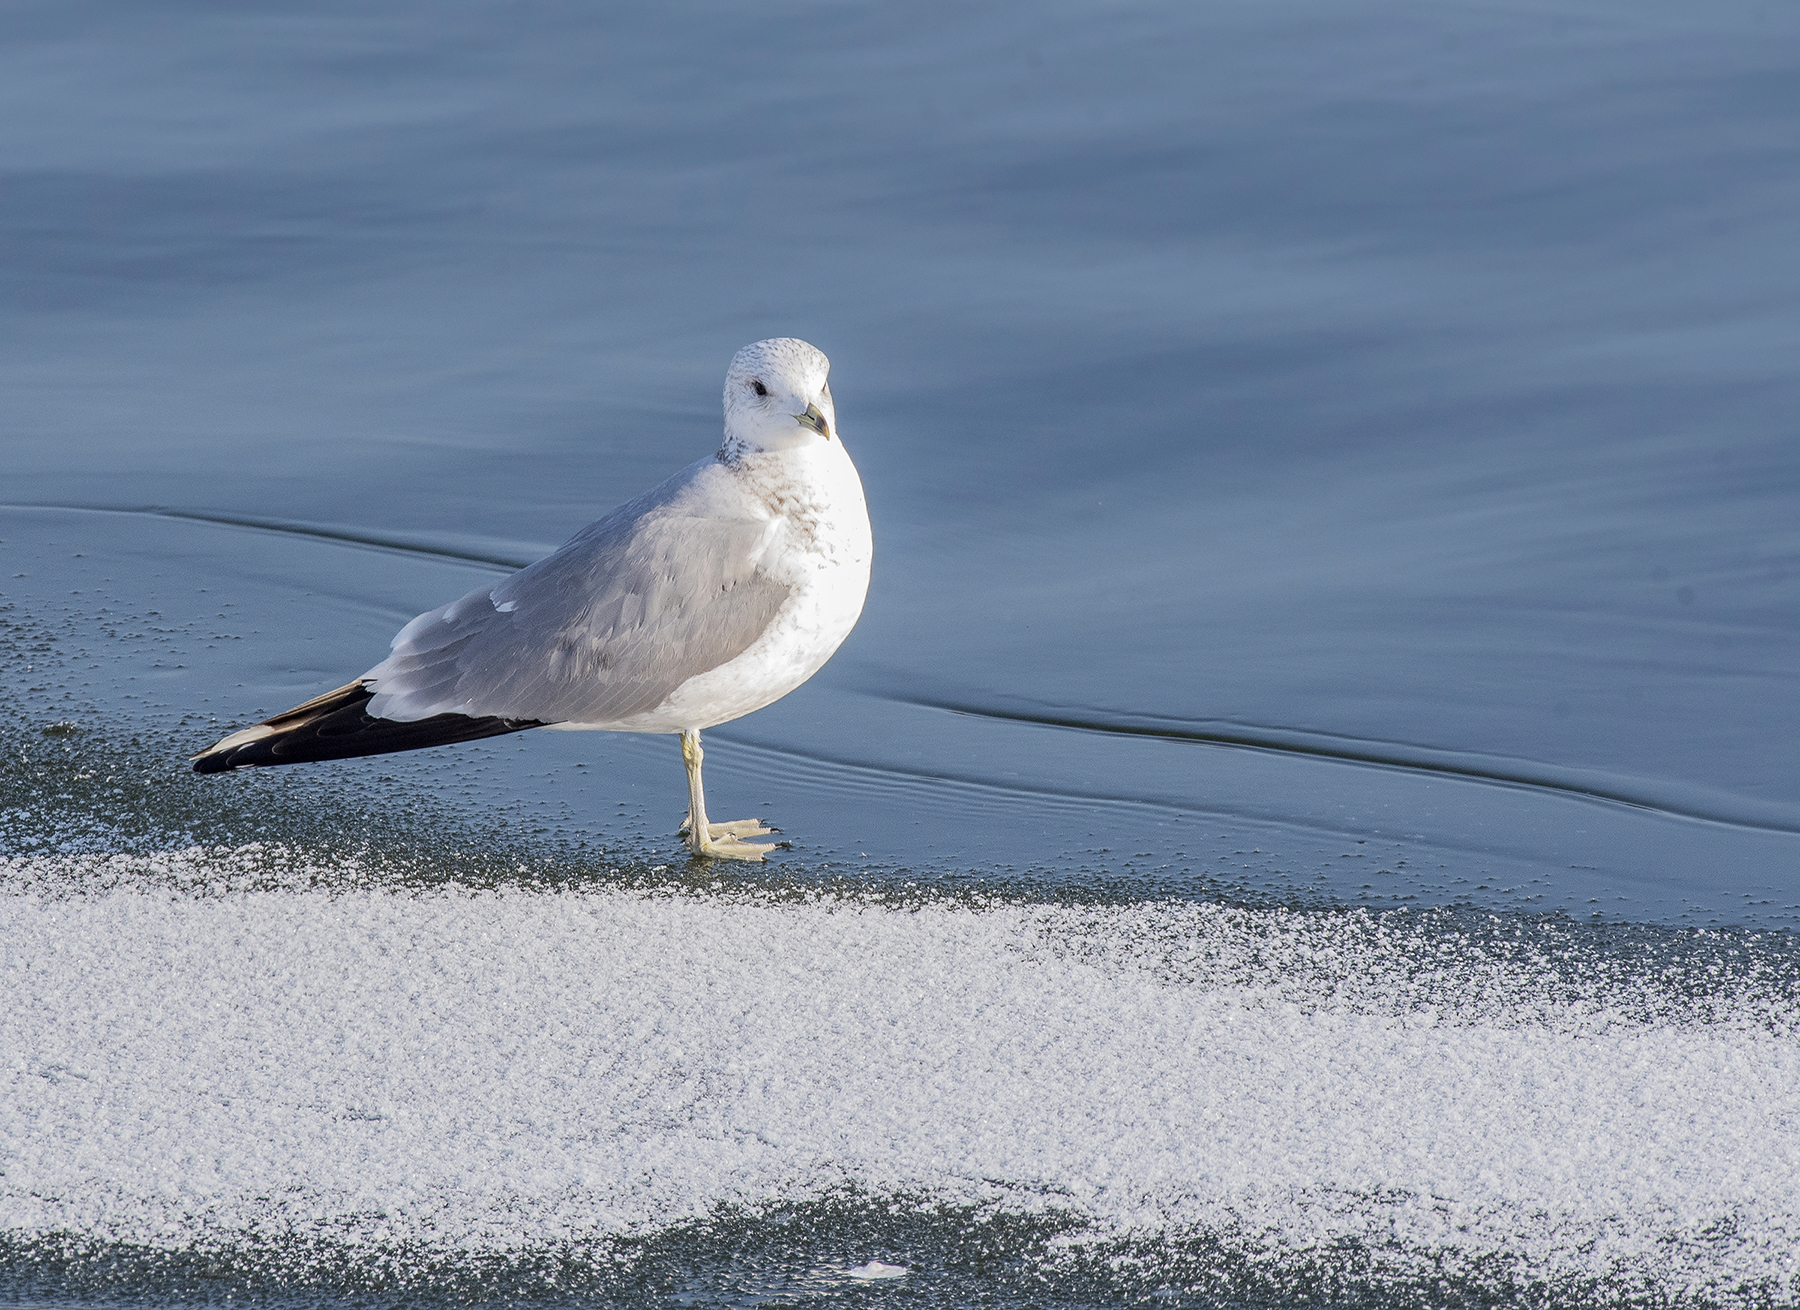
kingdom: Animalia
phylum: Chordata
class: Aves
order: Charadriiformes
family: Laridae
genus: Larus
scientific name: Larus canus
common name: Mew gull
